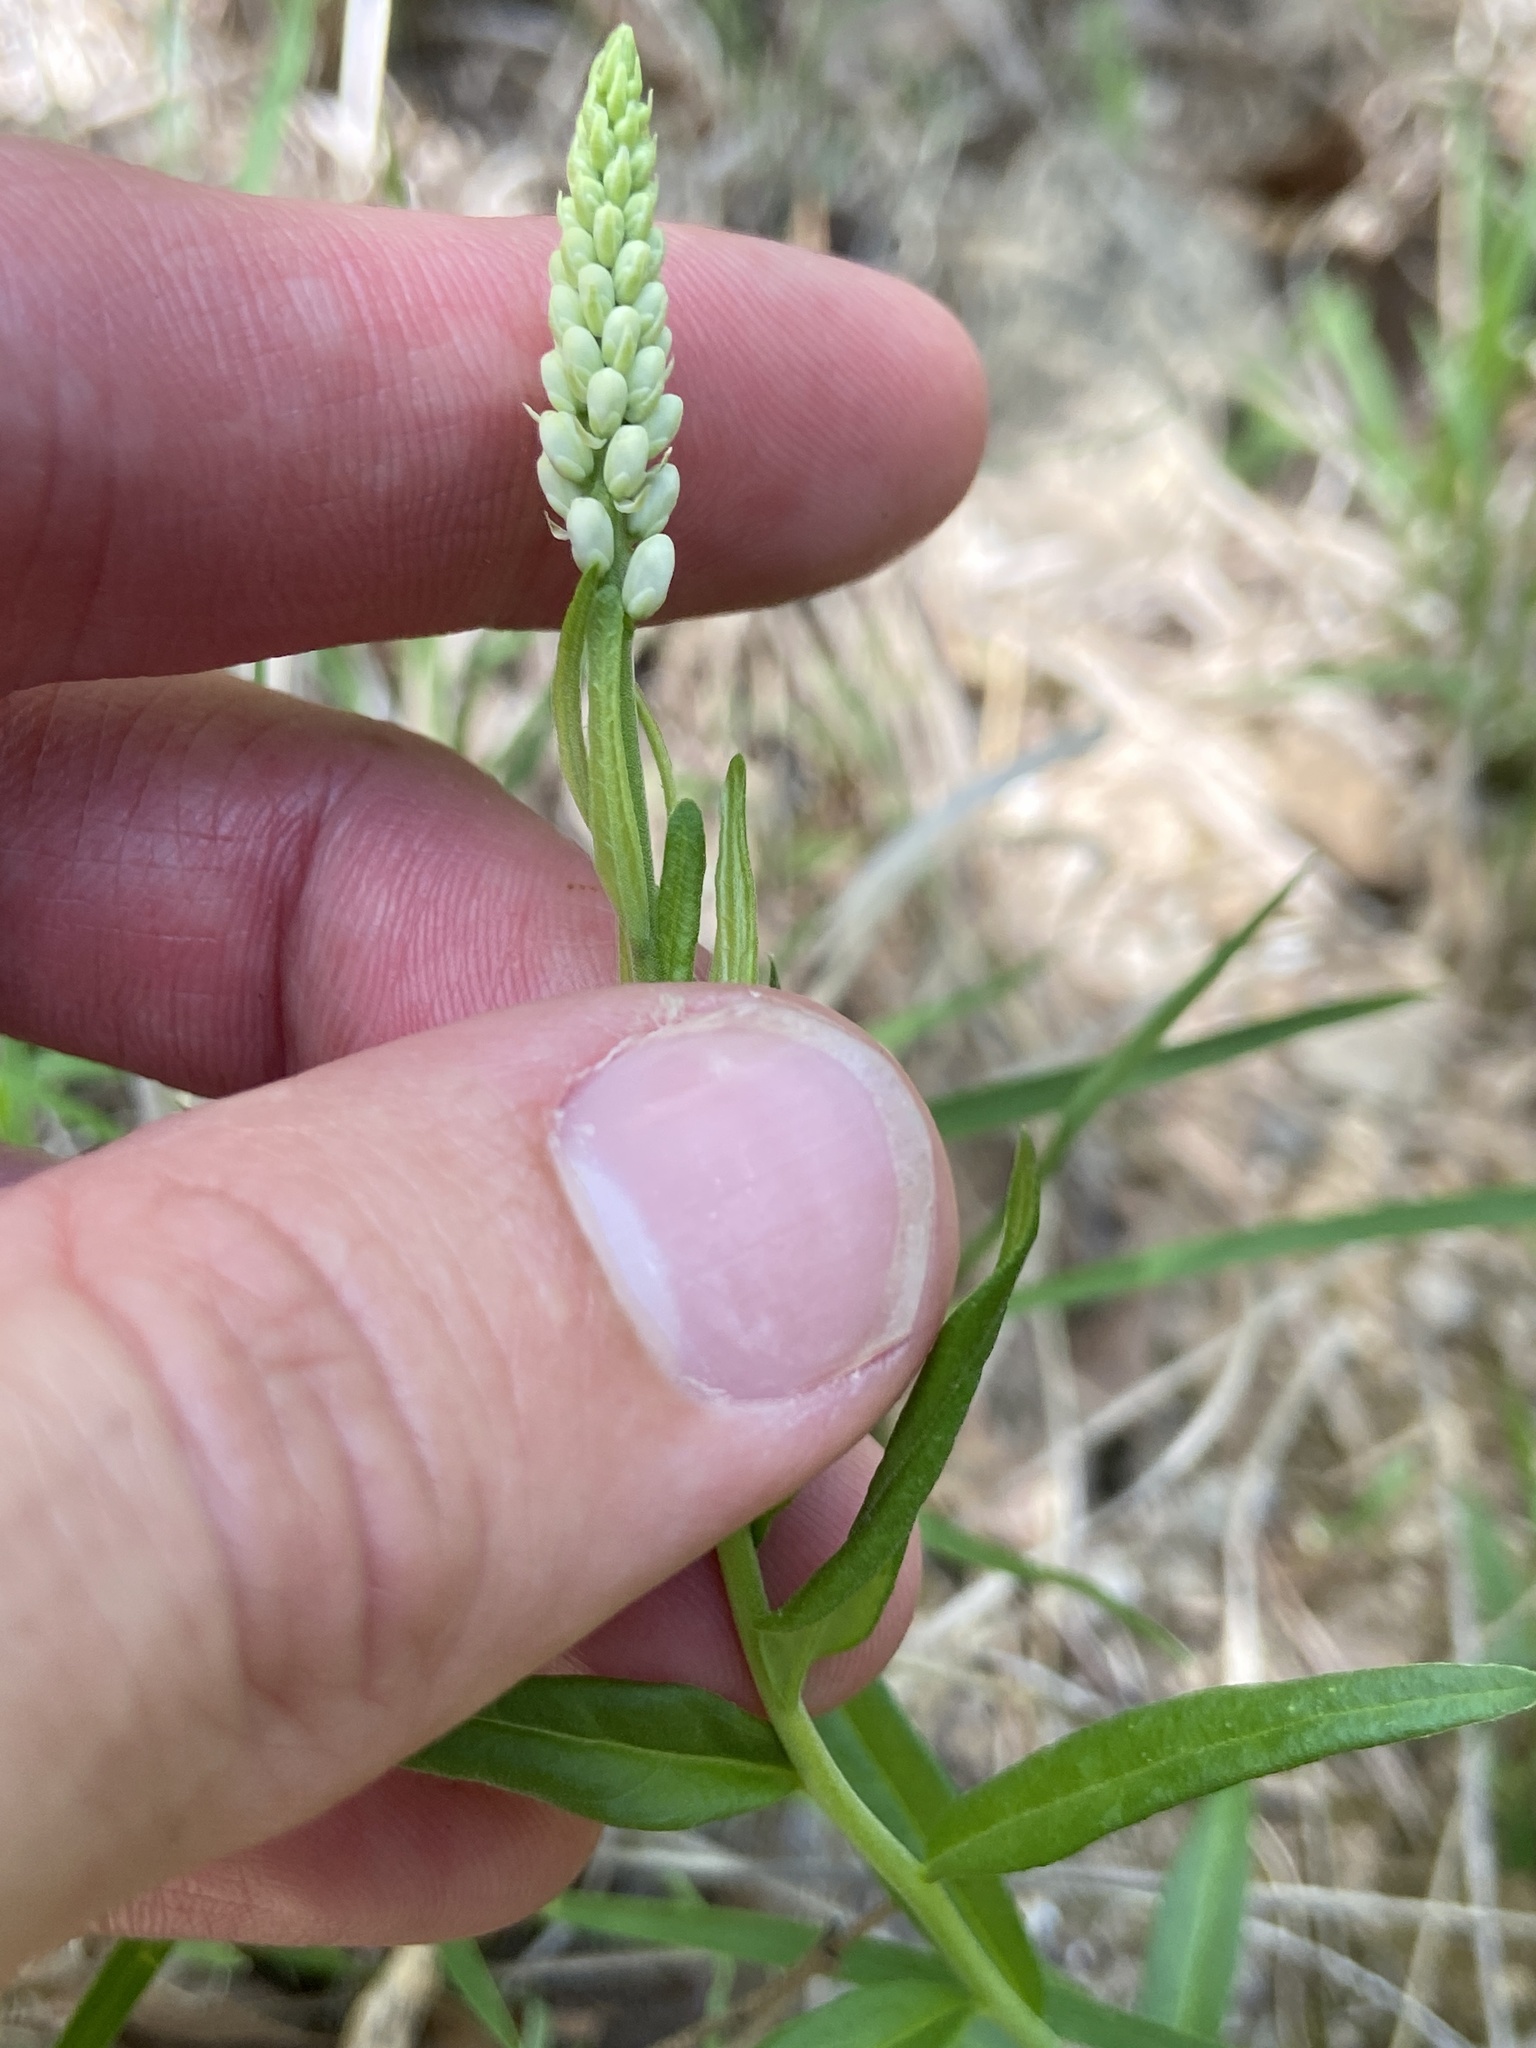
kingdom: Plantae
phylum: Tracheophyta
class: Magnoliopsida
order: Fabales
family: Polygalaceae
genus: Polygala
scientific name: Polygala senega
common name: Seneca snakeroot
